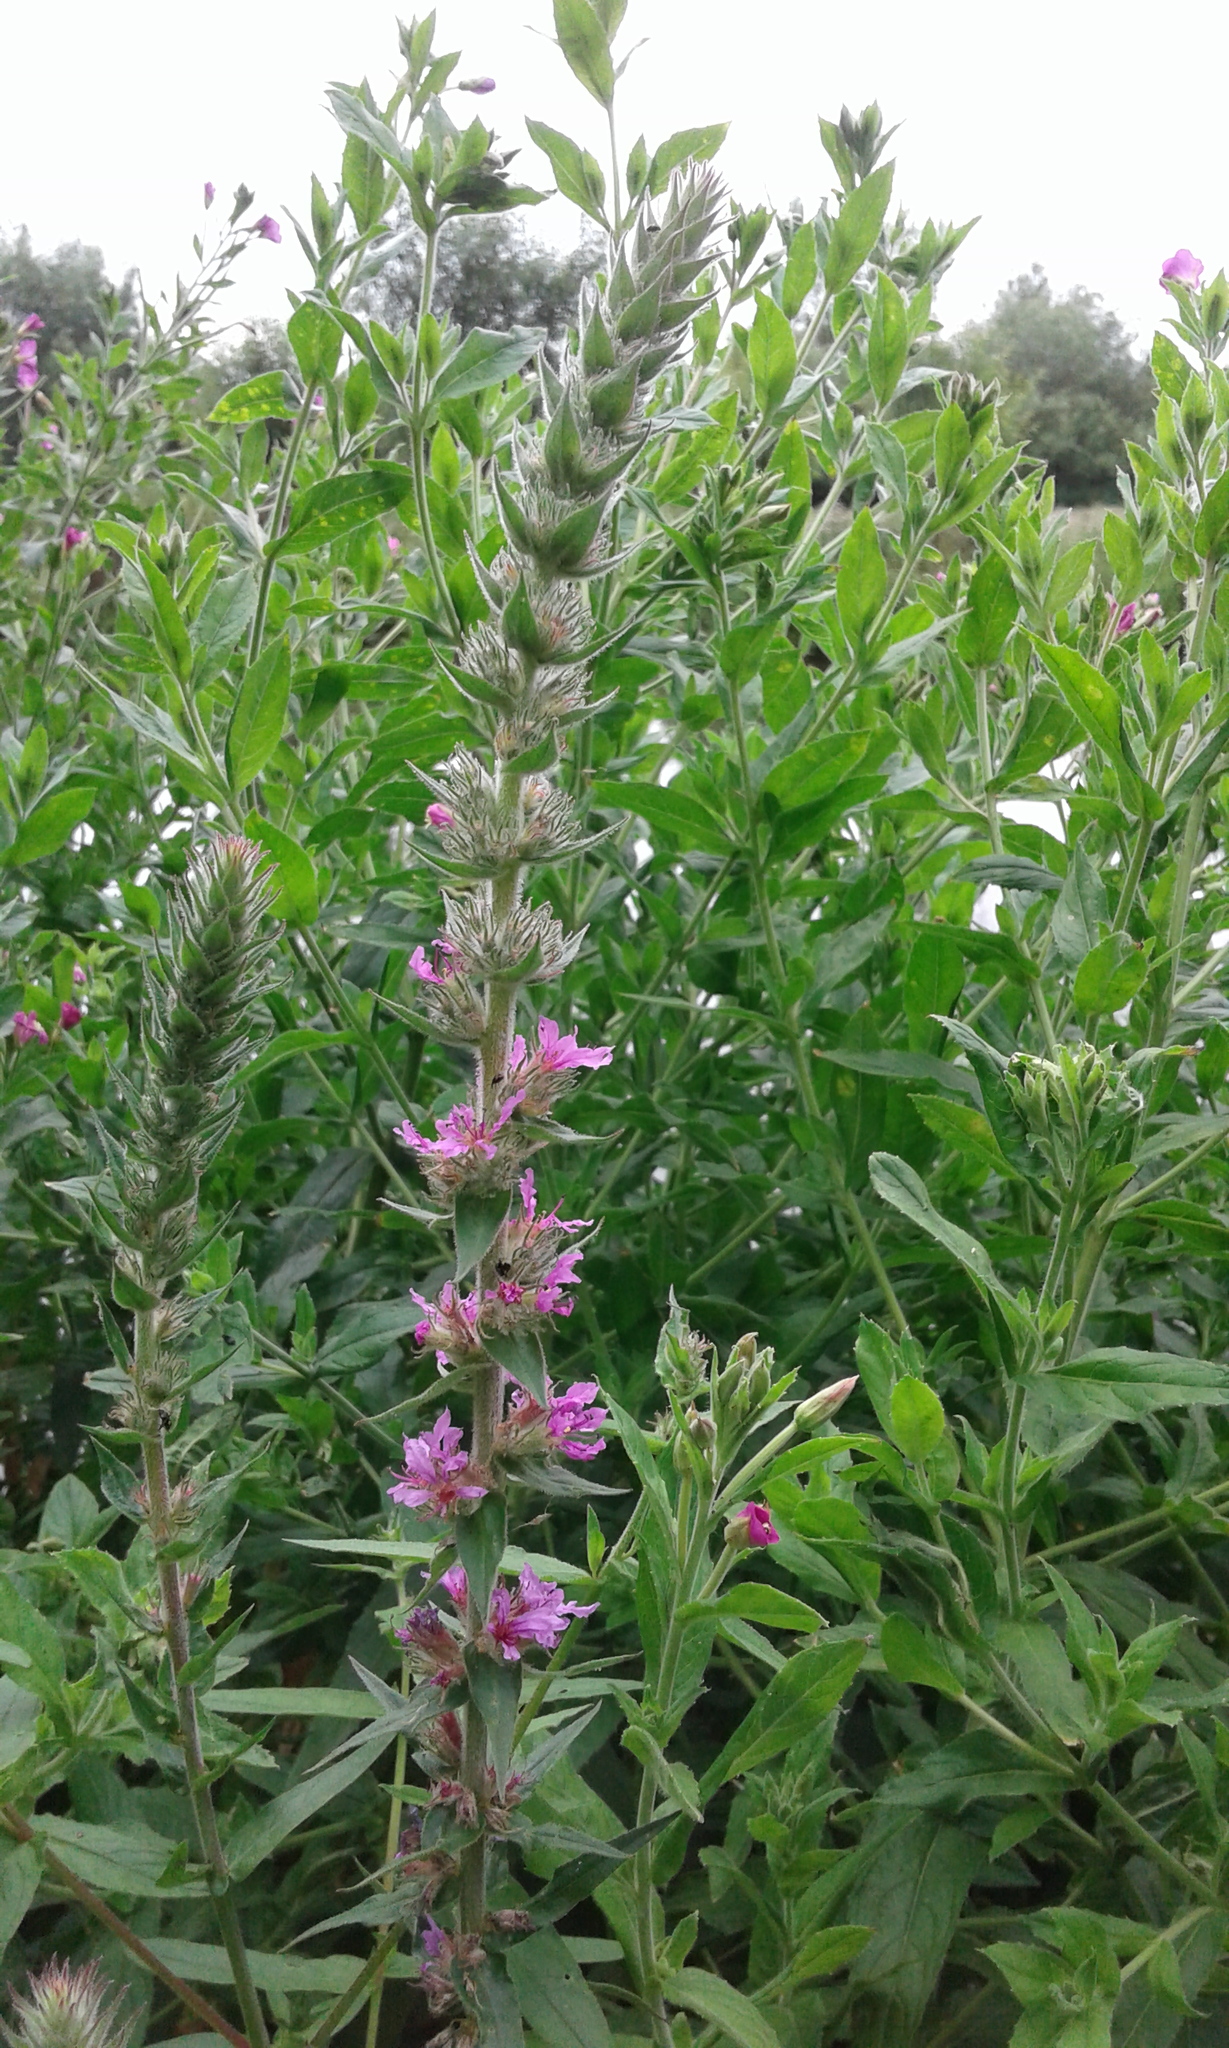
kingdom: Plantae
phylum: Tracheophyta
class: Magnoliopsida
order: Myrtales
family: Lythraceae
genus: Lythrum
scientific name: Lythrum salicaria
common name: Purple loosestrife
